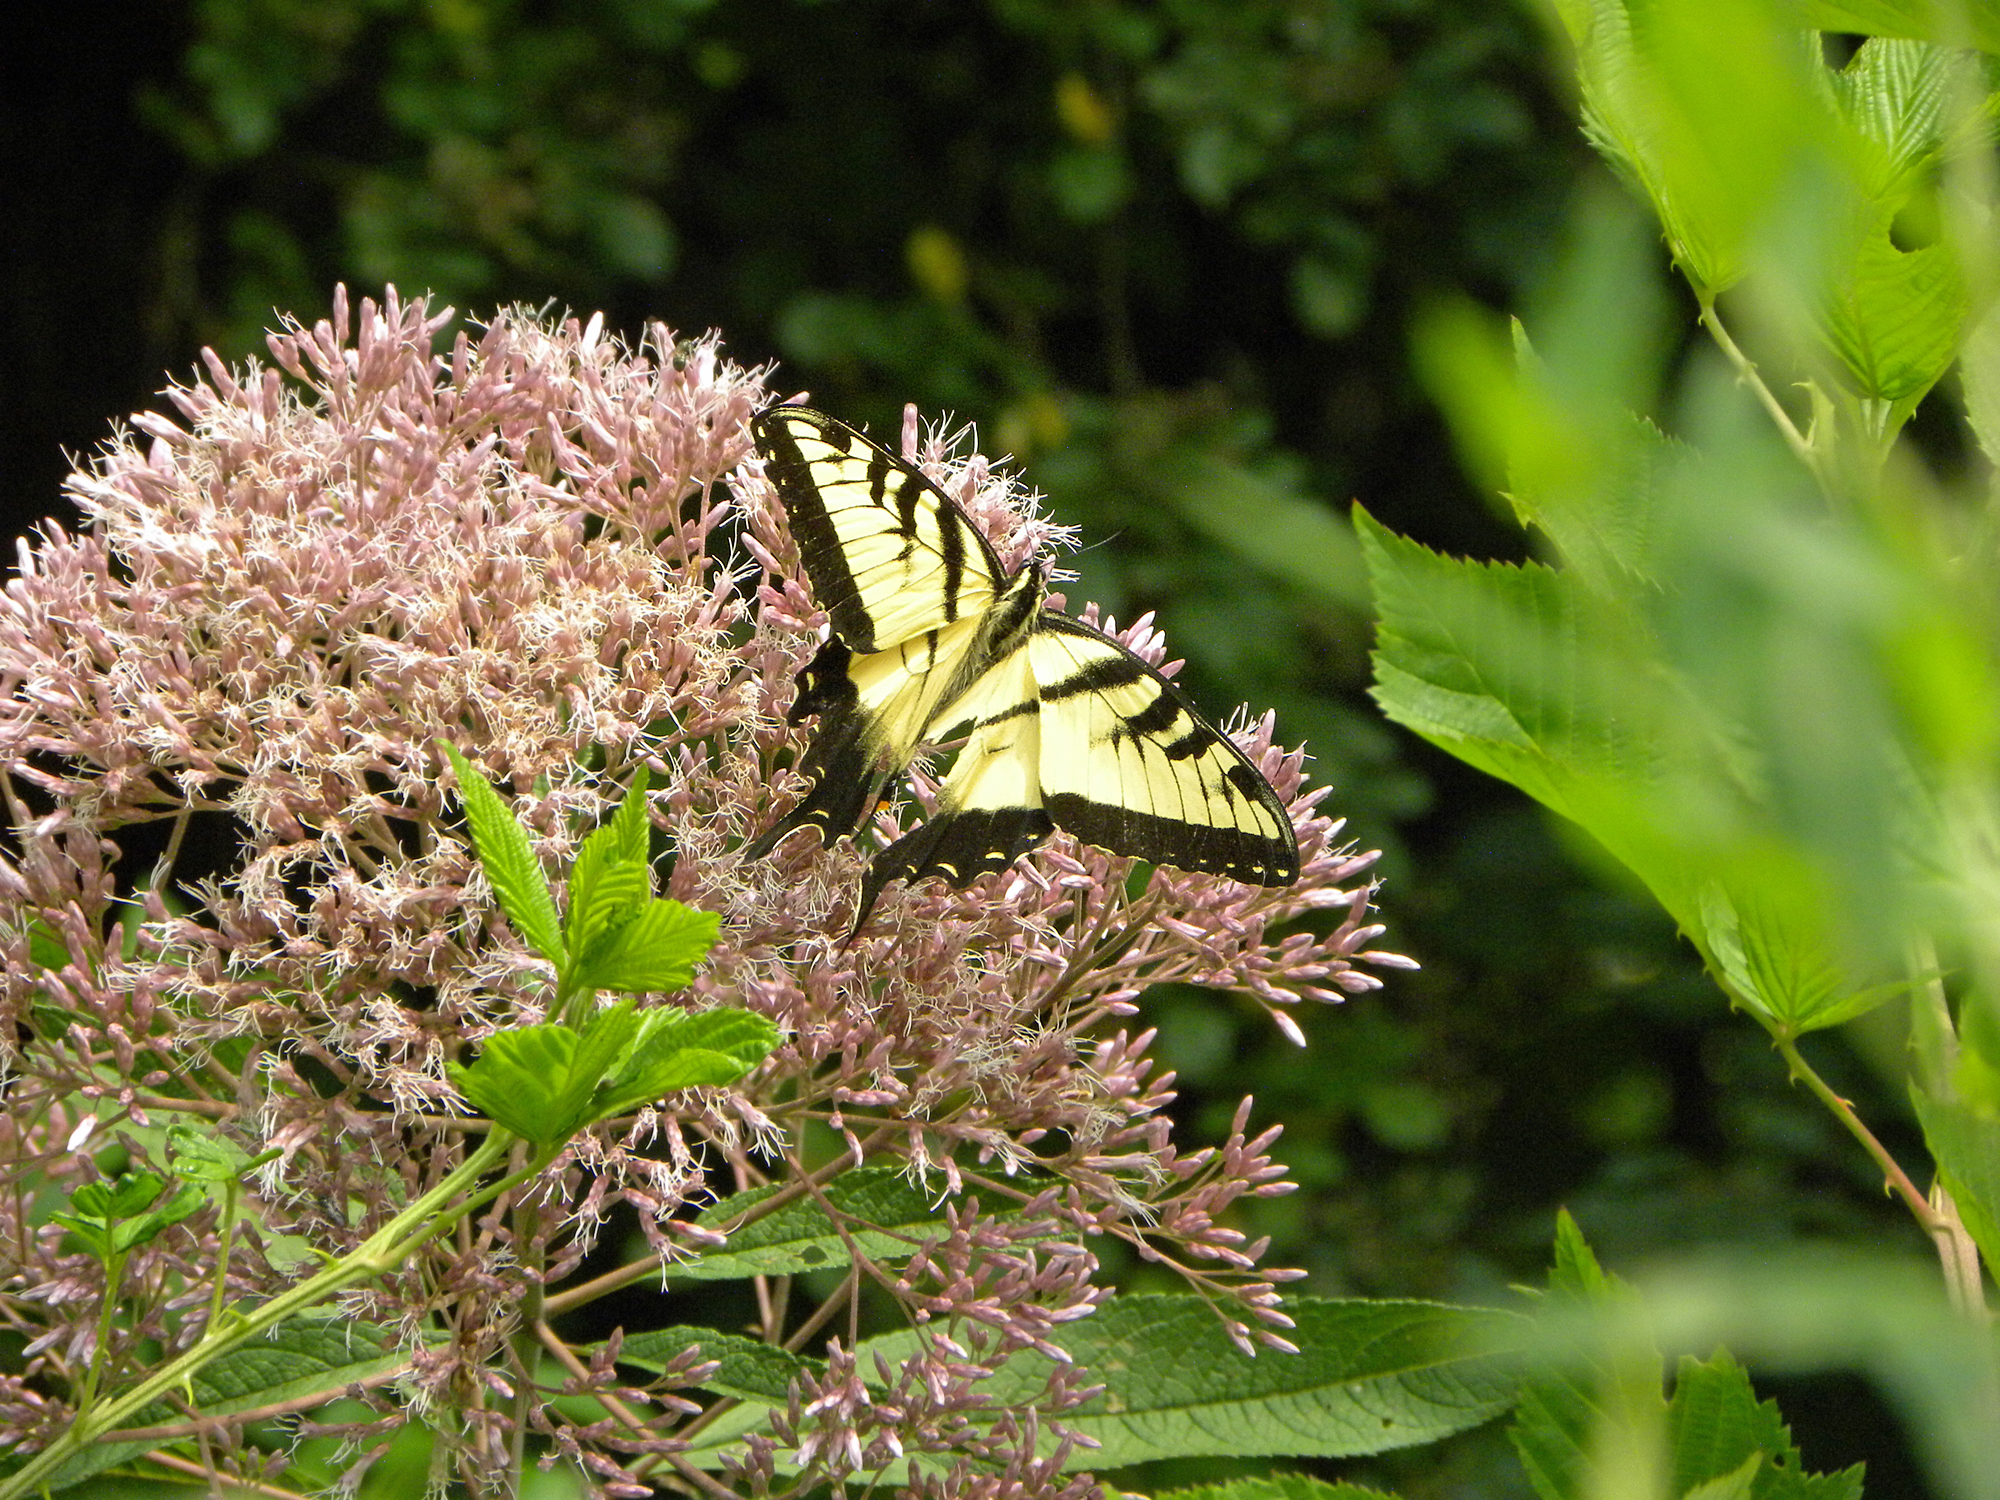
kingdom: Animalia
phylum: Arthropoda
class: Insecta
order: Lepidoptera
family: Papilionidae
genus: Papilio
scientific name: Papilio glaucus
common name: Tiger swallowtail
